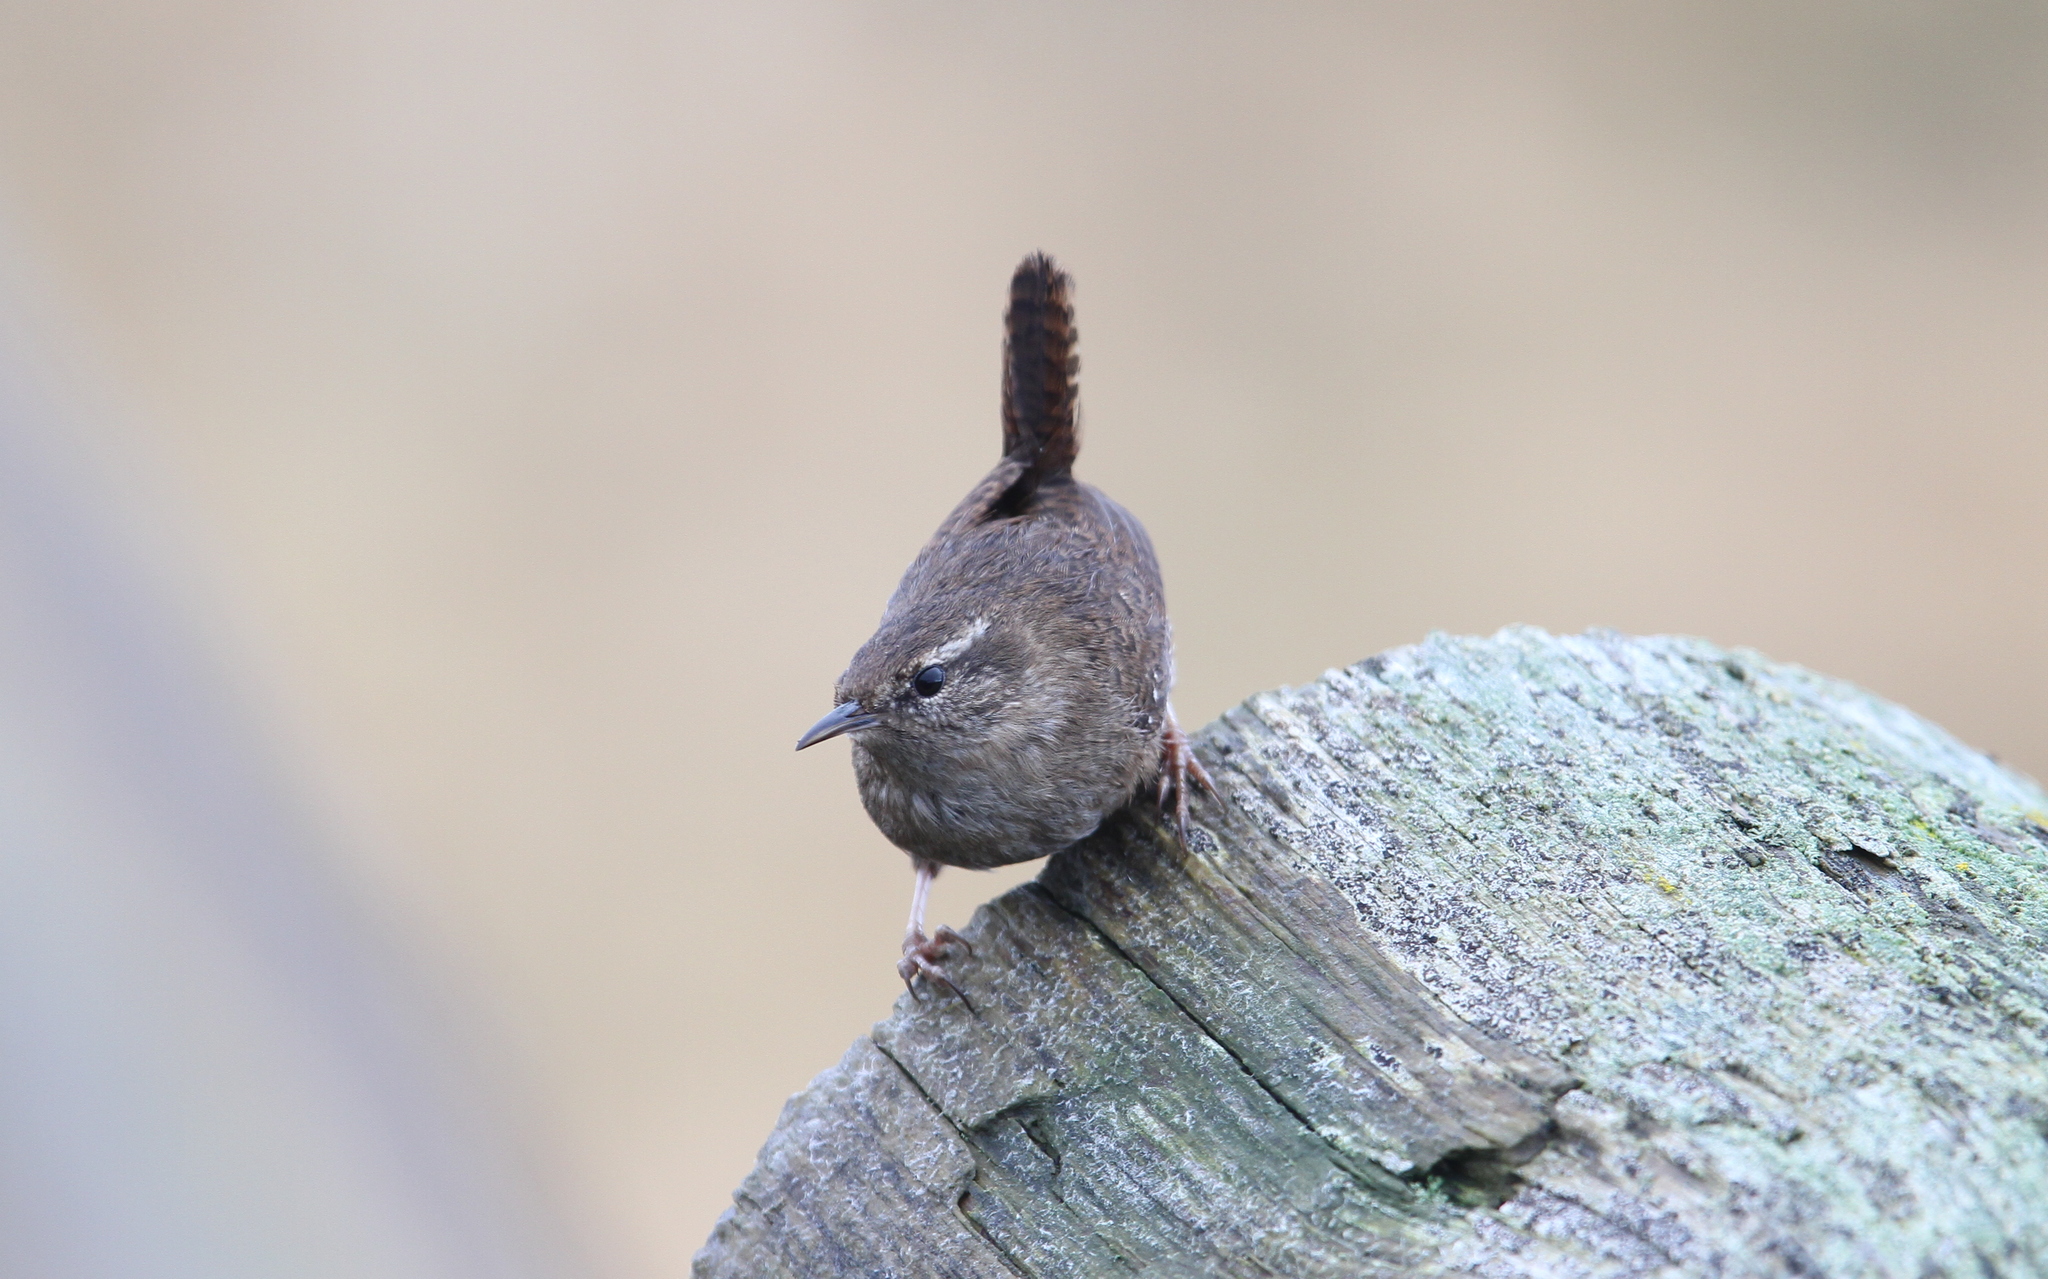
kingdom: Animalia
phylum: Chordata
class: Aves
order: Passeriformes
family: Troglodytidae
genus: Troglodytes
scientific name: Troglodytes troglodytes
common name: Eurasian wren
